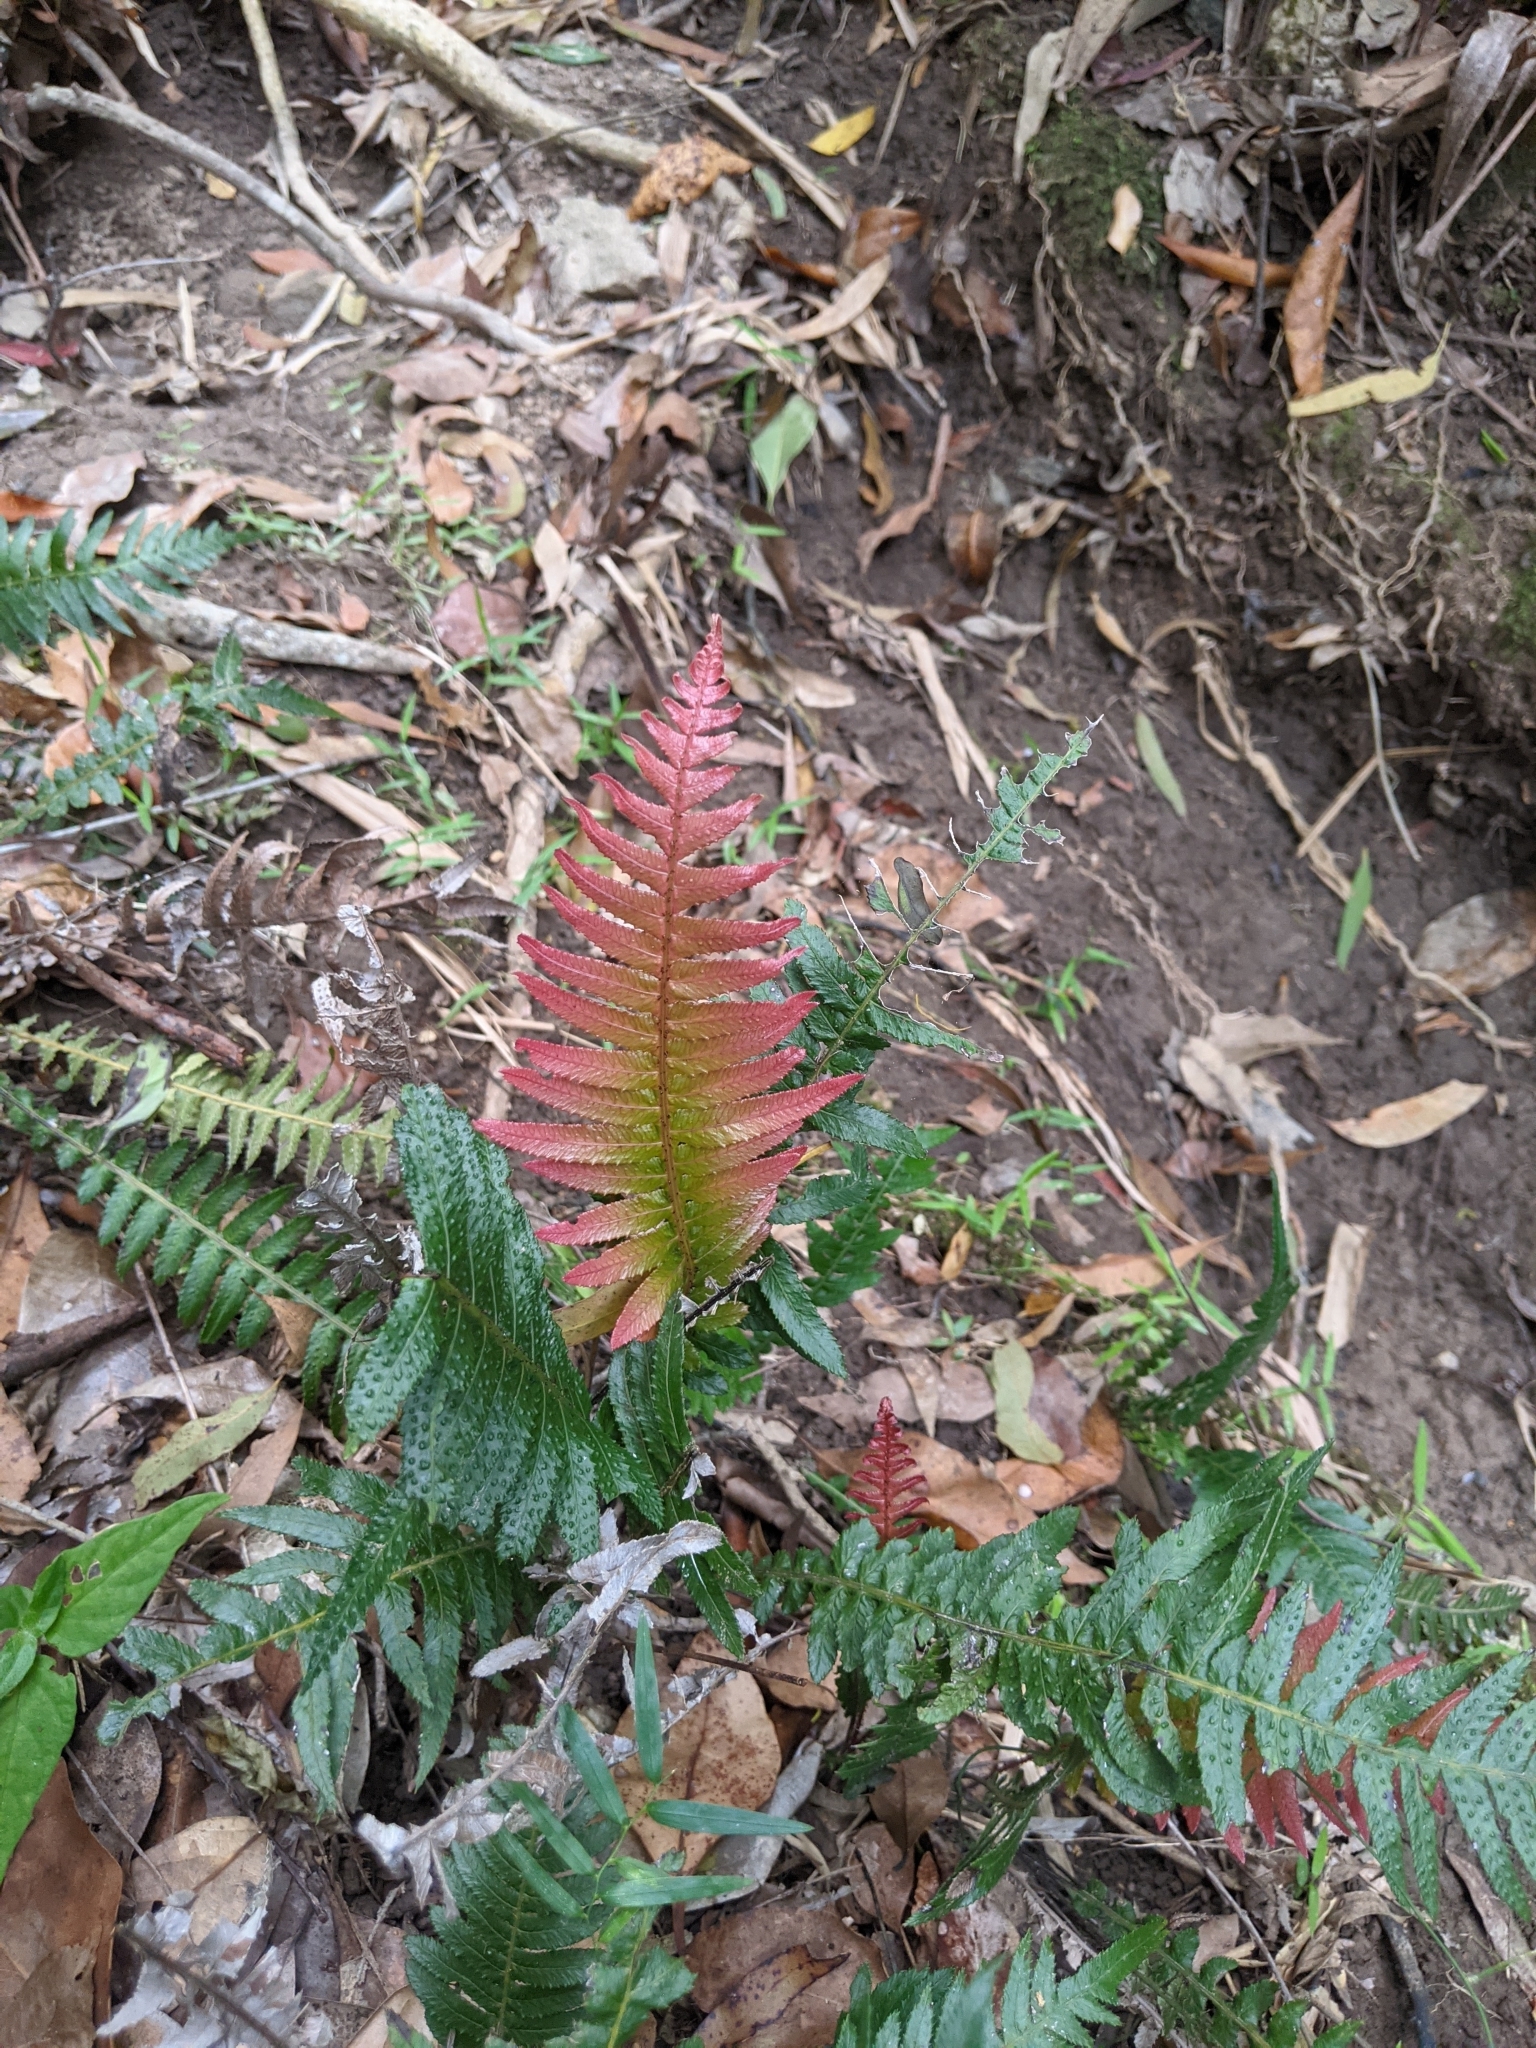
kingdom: Plantae
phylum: Tracheophyta
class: Polypodiopsida
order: Polypodiales
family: Blechnaceae
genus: Doodia
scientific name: Doodia aspera
